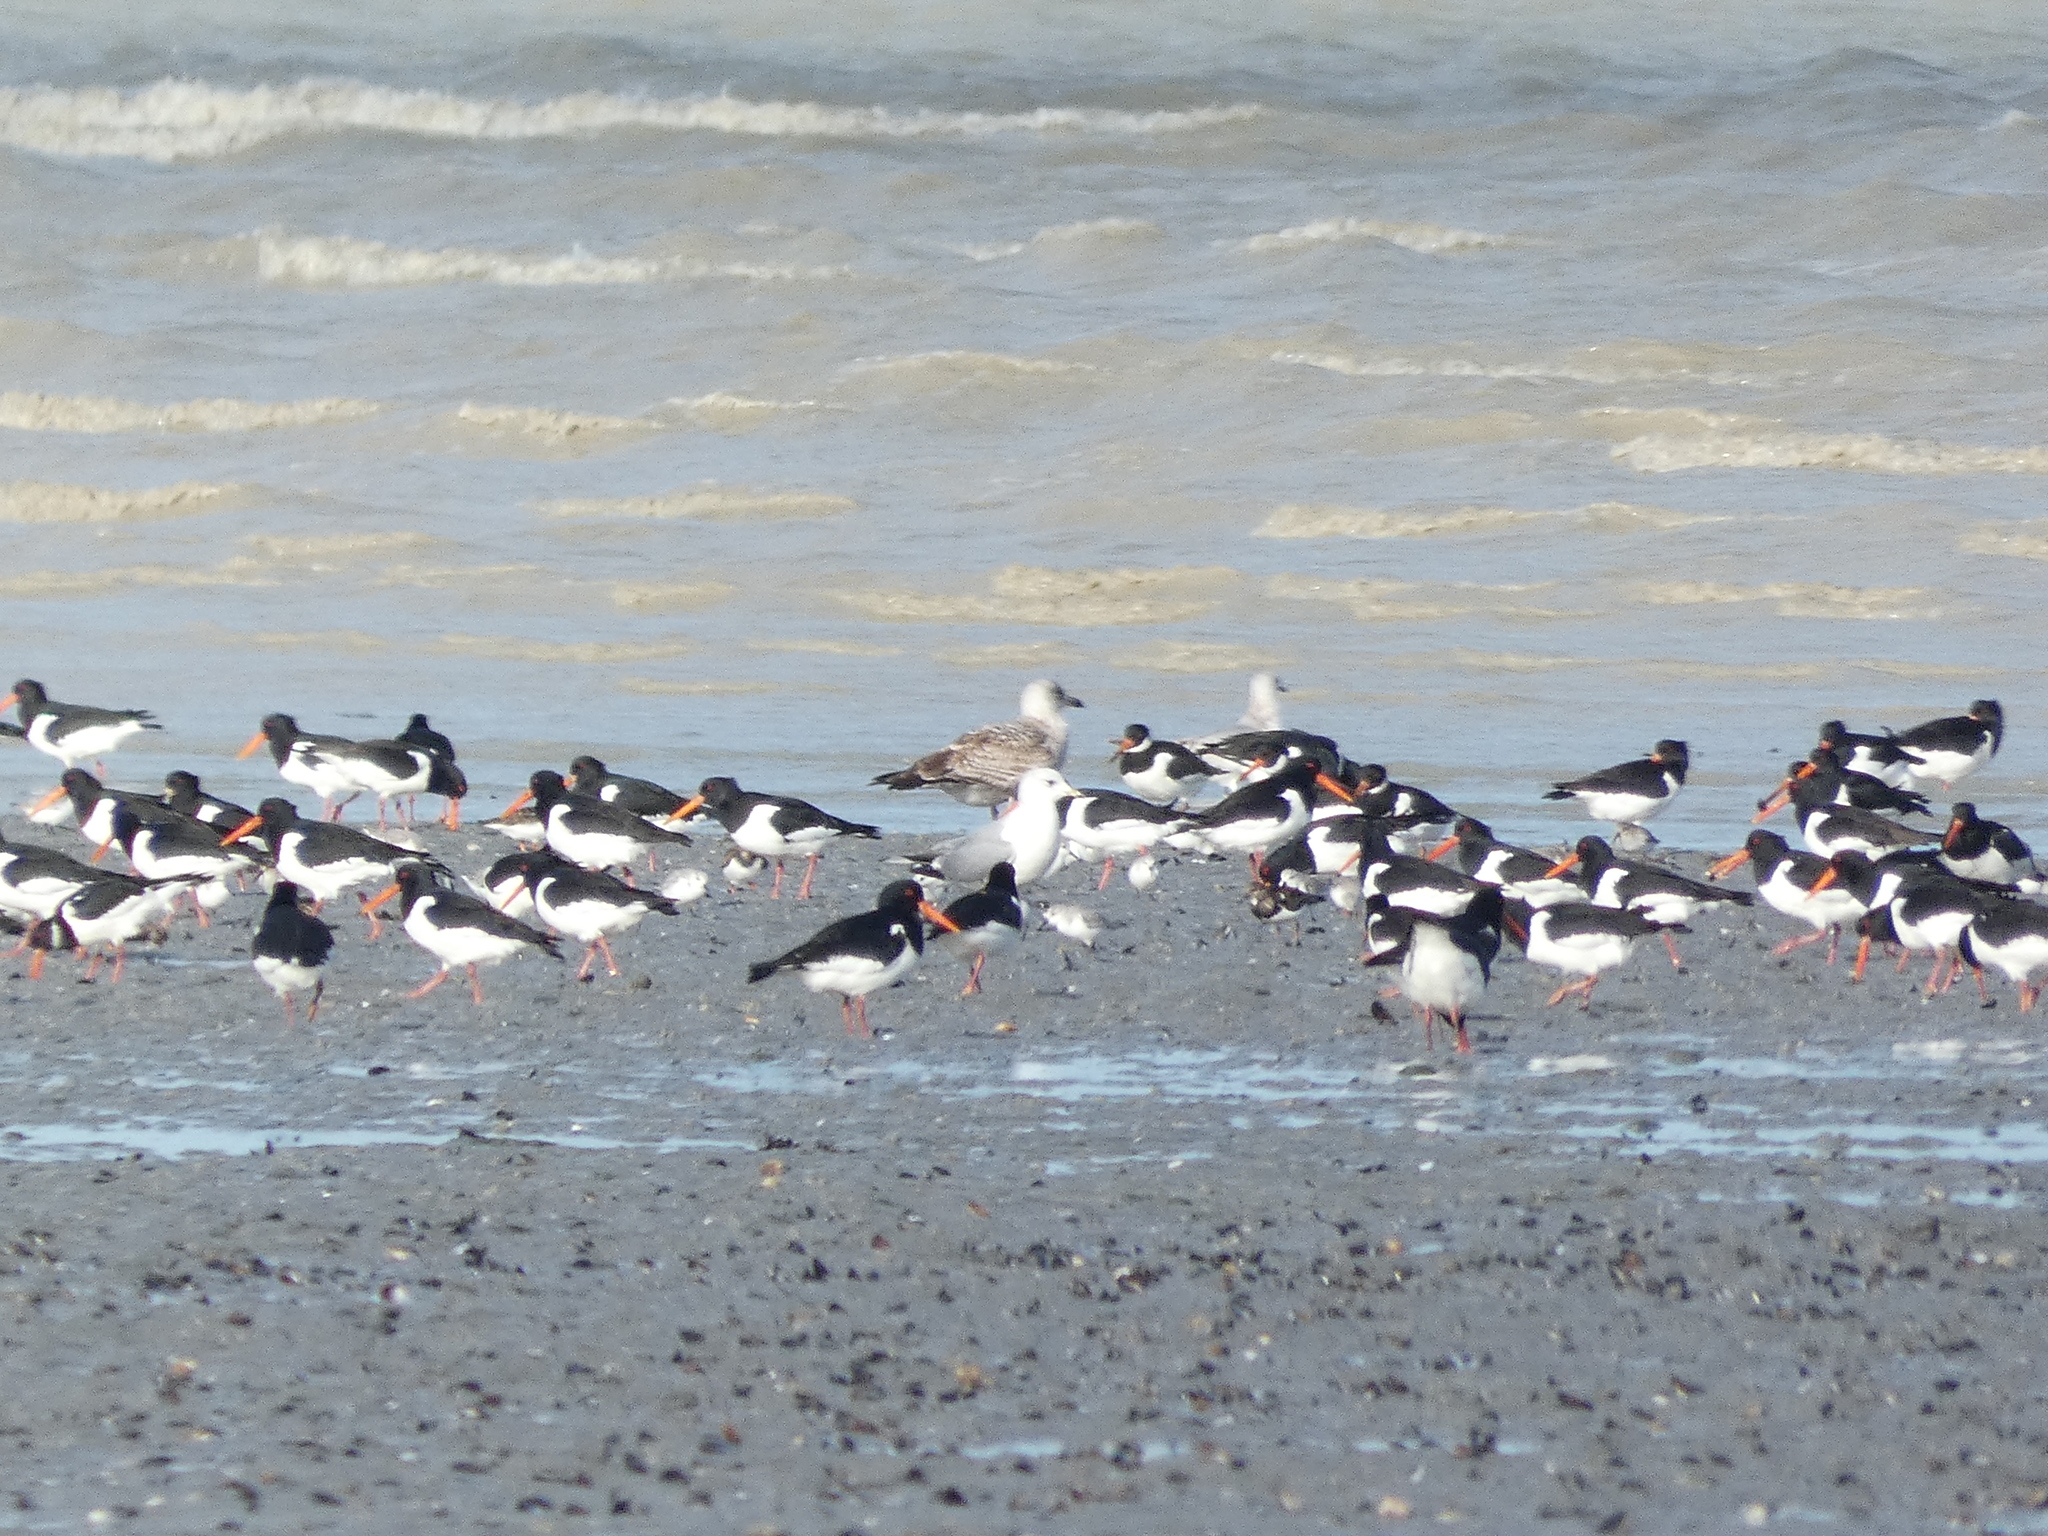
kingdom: Animalia
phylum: Chordata
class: Aves
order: Charadriiformes
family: Haematopodidae
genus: Haematopus
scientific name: Haematopus ostralegus
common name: Eurasian oystercatcher
